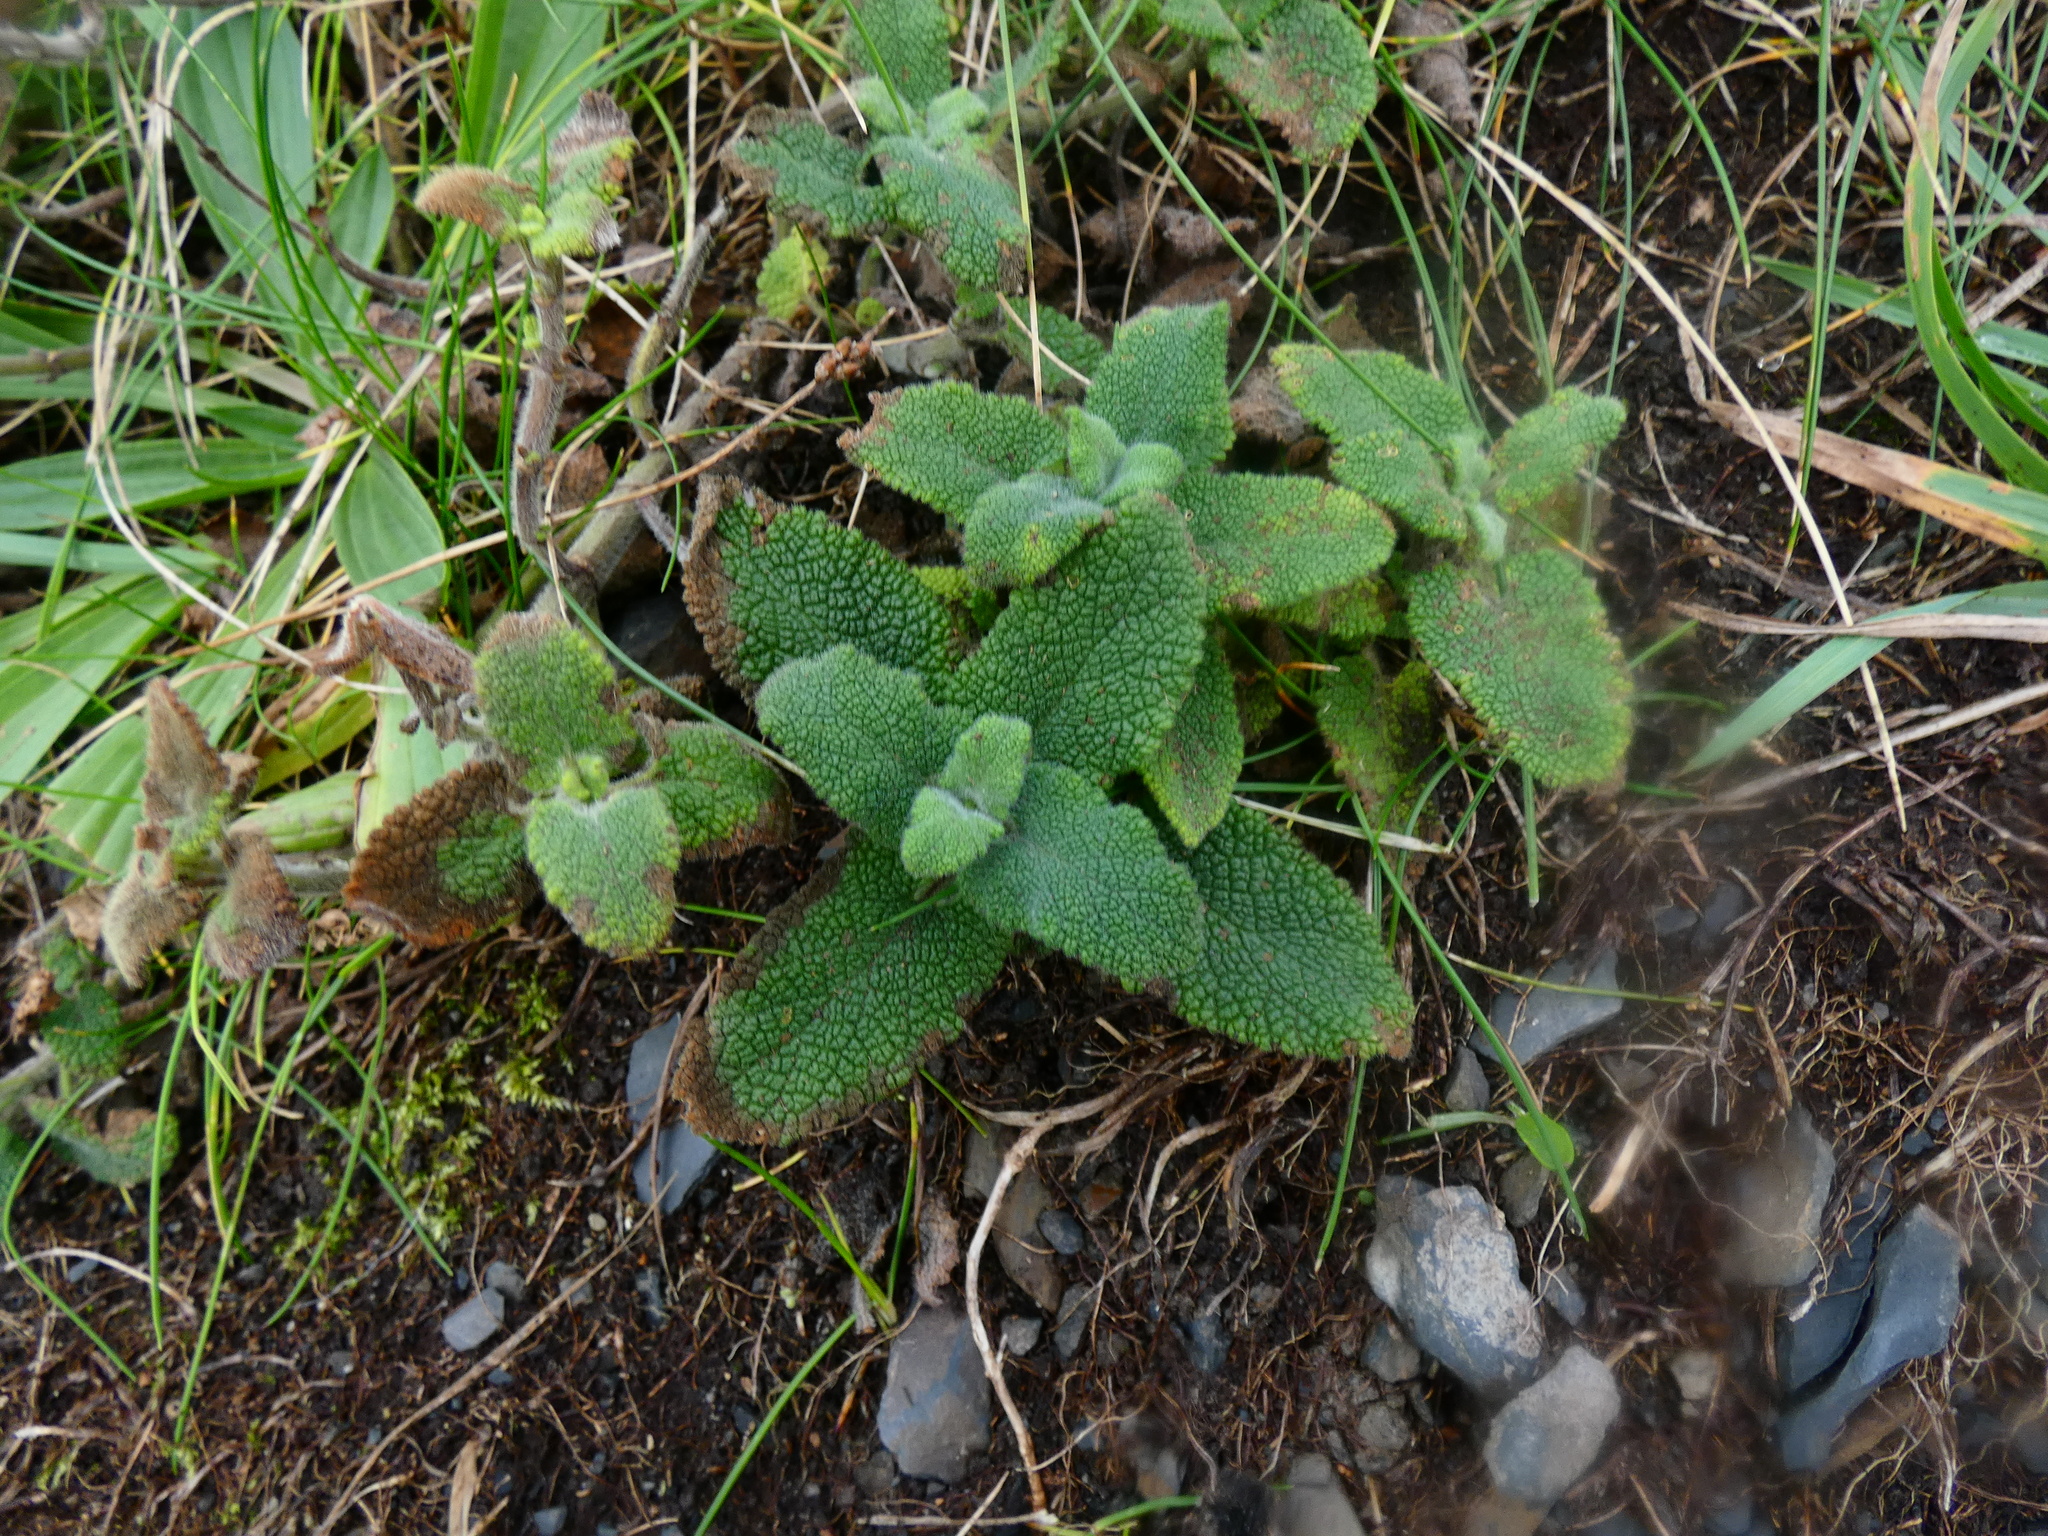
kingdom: Plantae
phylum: Tracheophyta
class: Magnoliopsida
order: Lamiales
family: Lamiaceae
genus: Teucrium
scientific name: Teucrium scorodonia
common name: Woodland germander
